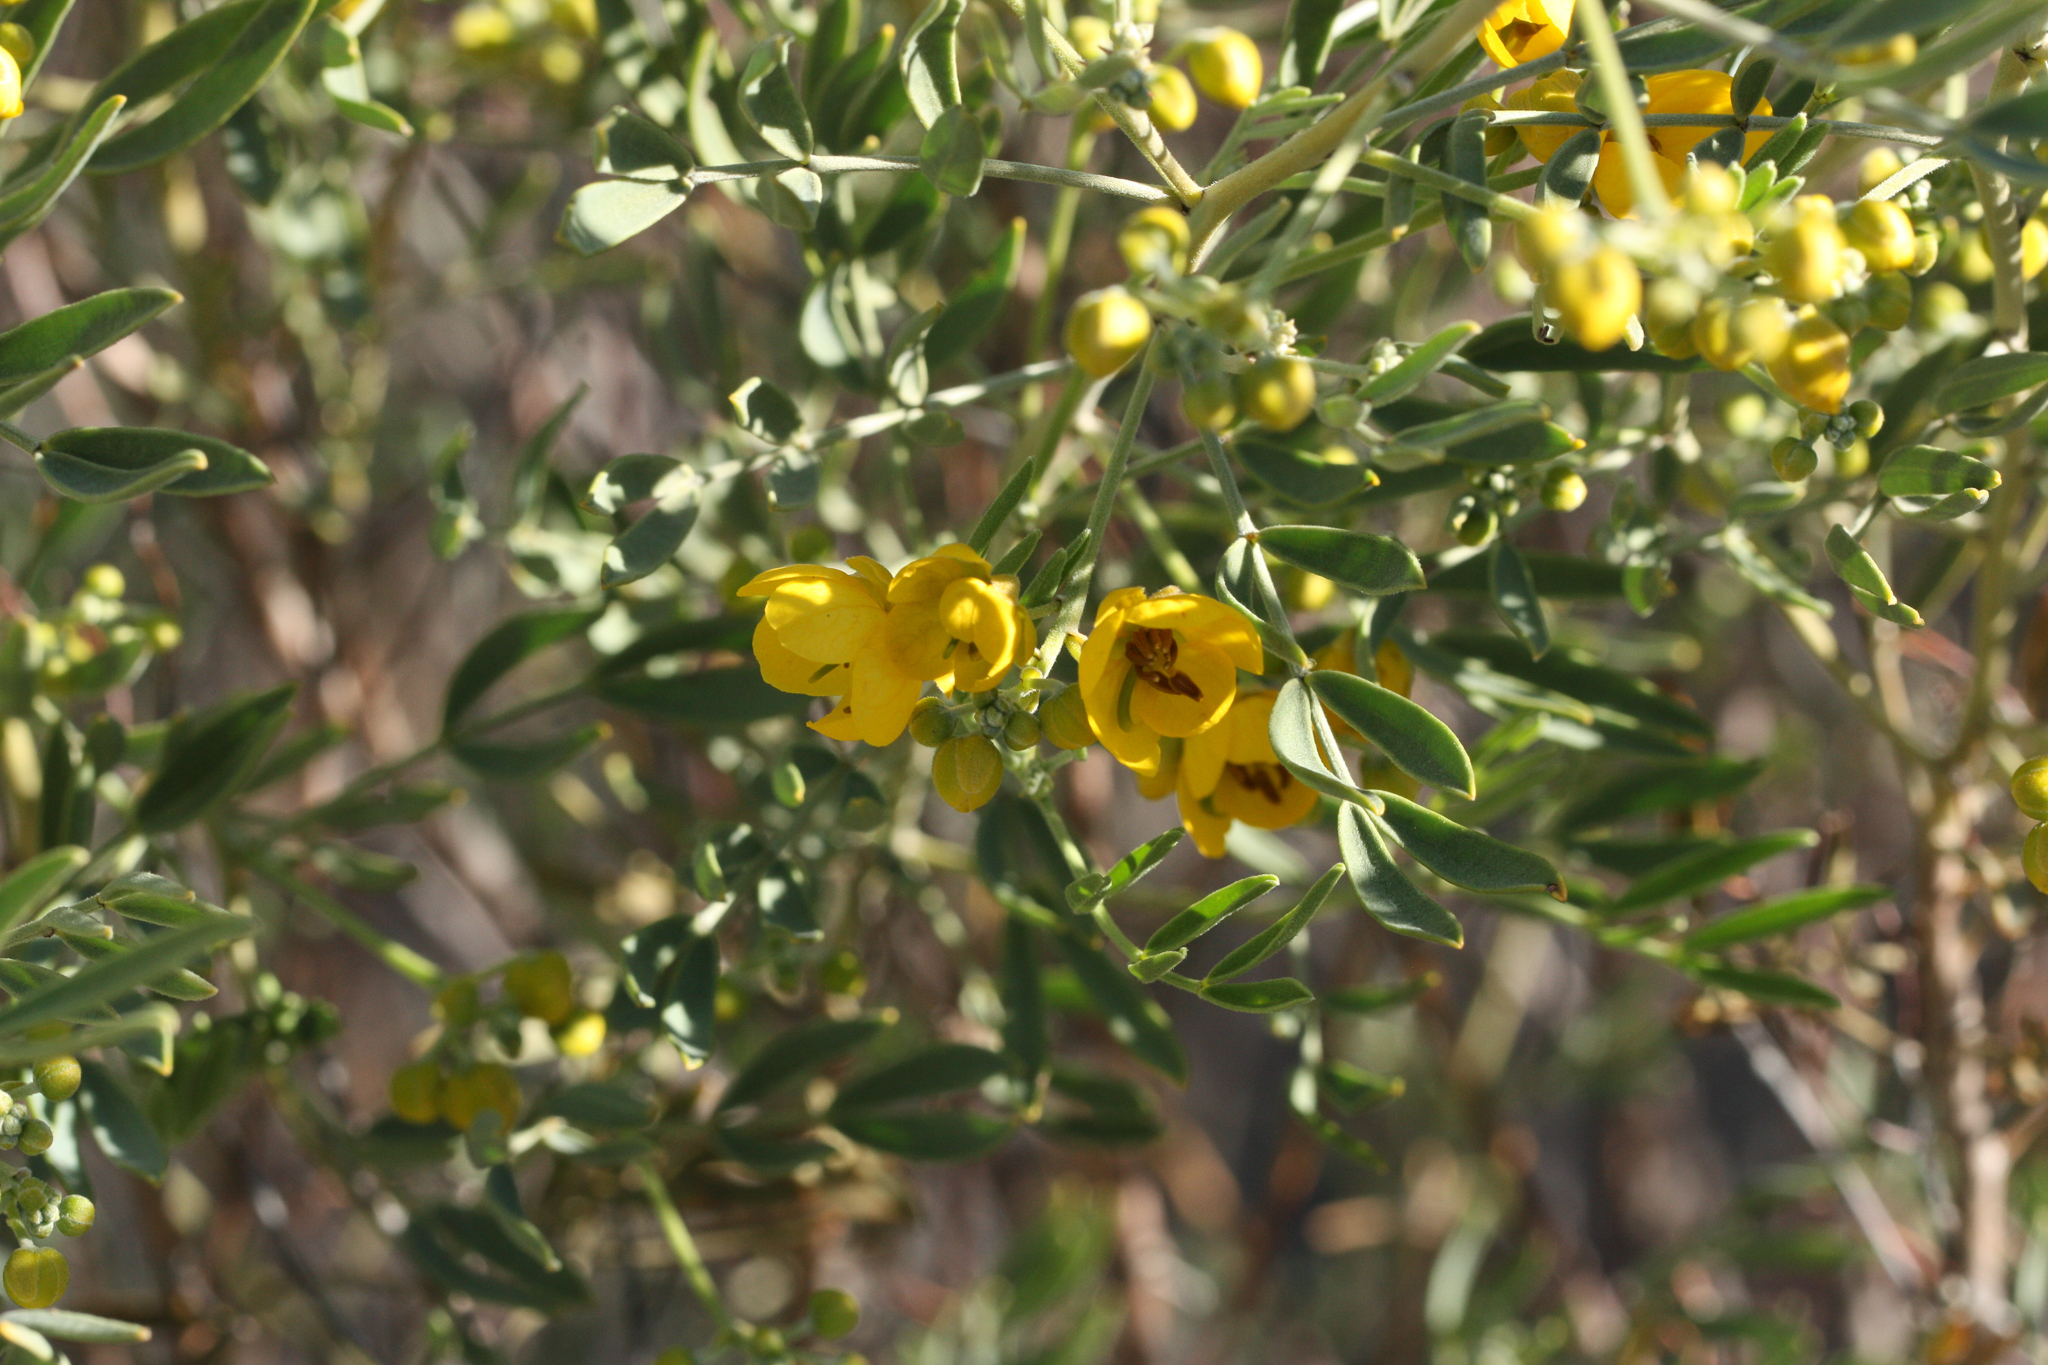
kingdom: Plantae
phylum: Tracheophyta
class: Magnoliopsida
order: Fabales
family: Fabaceae
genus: Senna
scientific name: Senna artemisioides
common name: Burnt-leaved acacia
